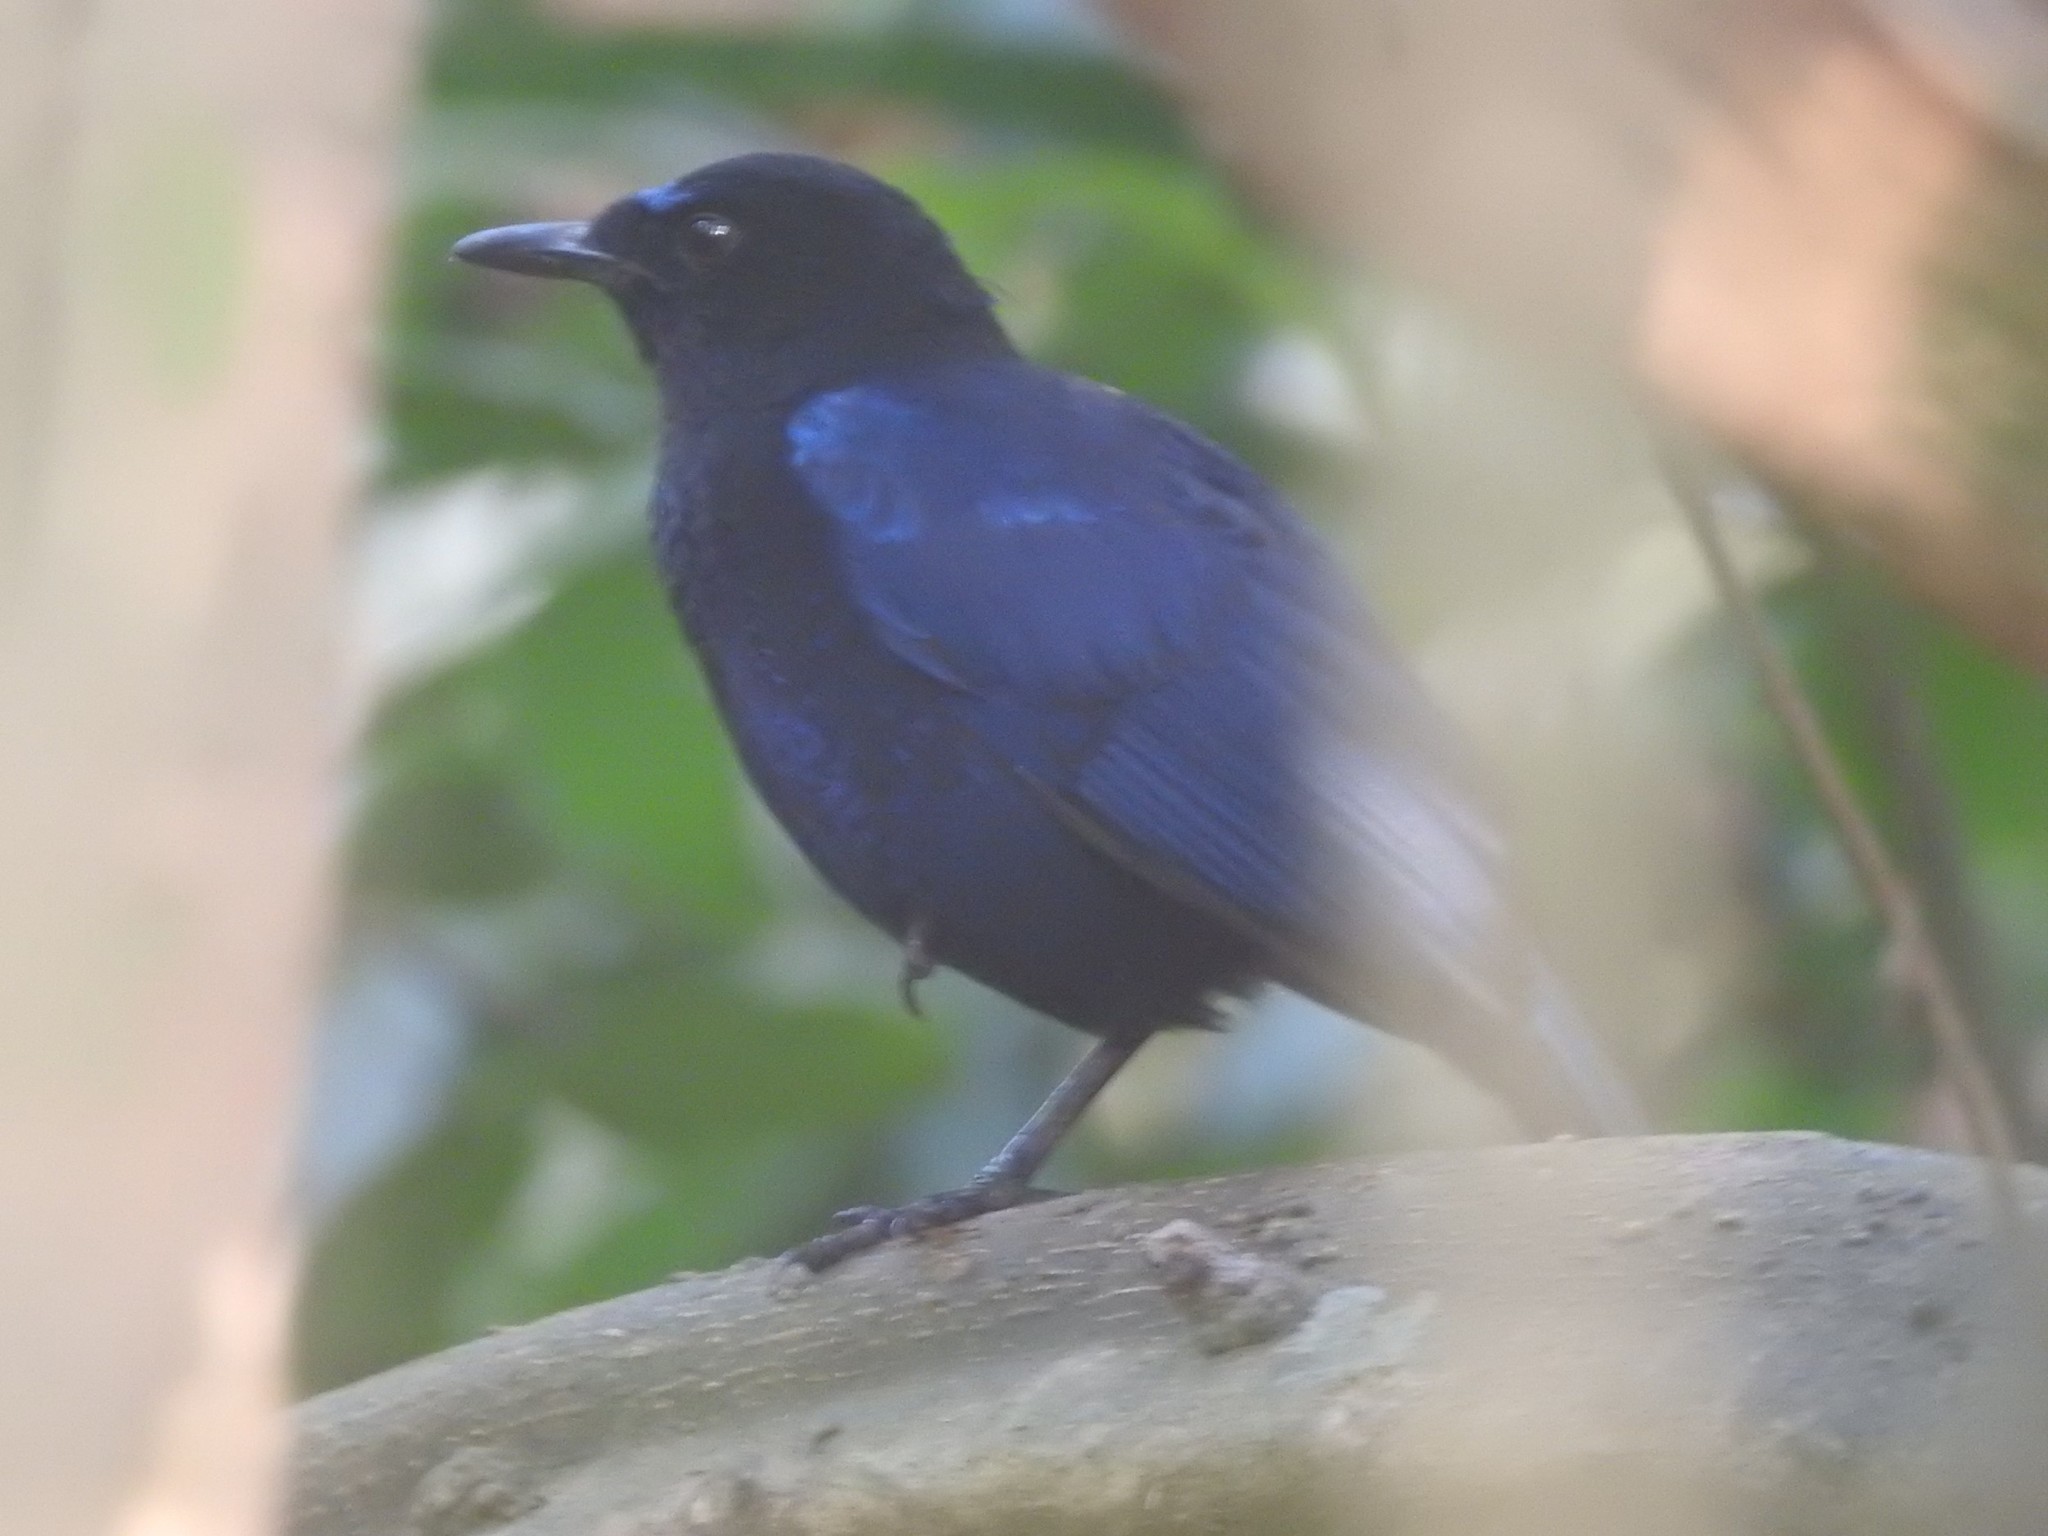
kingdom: Animalia
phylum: Chordata
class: Aves
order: Passeriformes
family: Muscicapidae
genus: Myophonus
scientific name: Myophonus horsfieldii
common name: Malabar whistling-thrush
